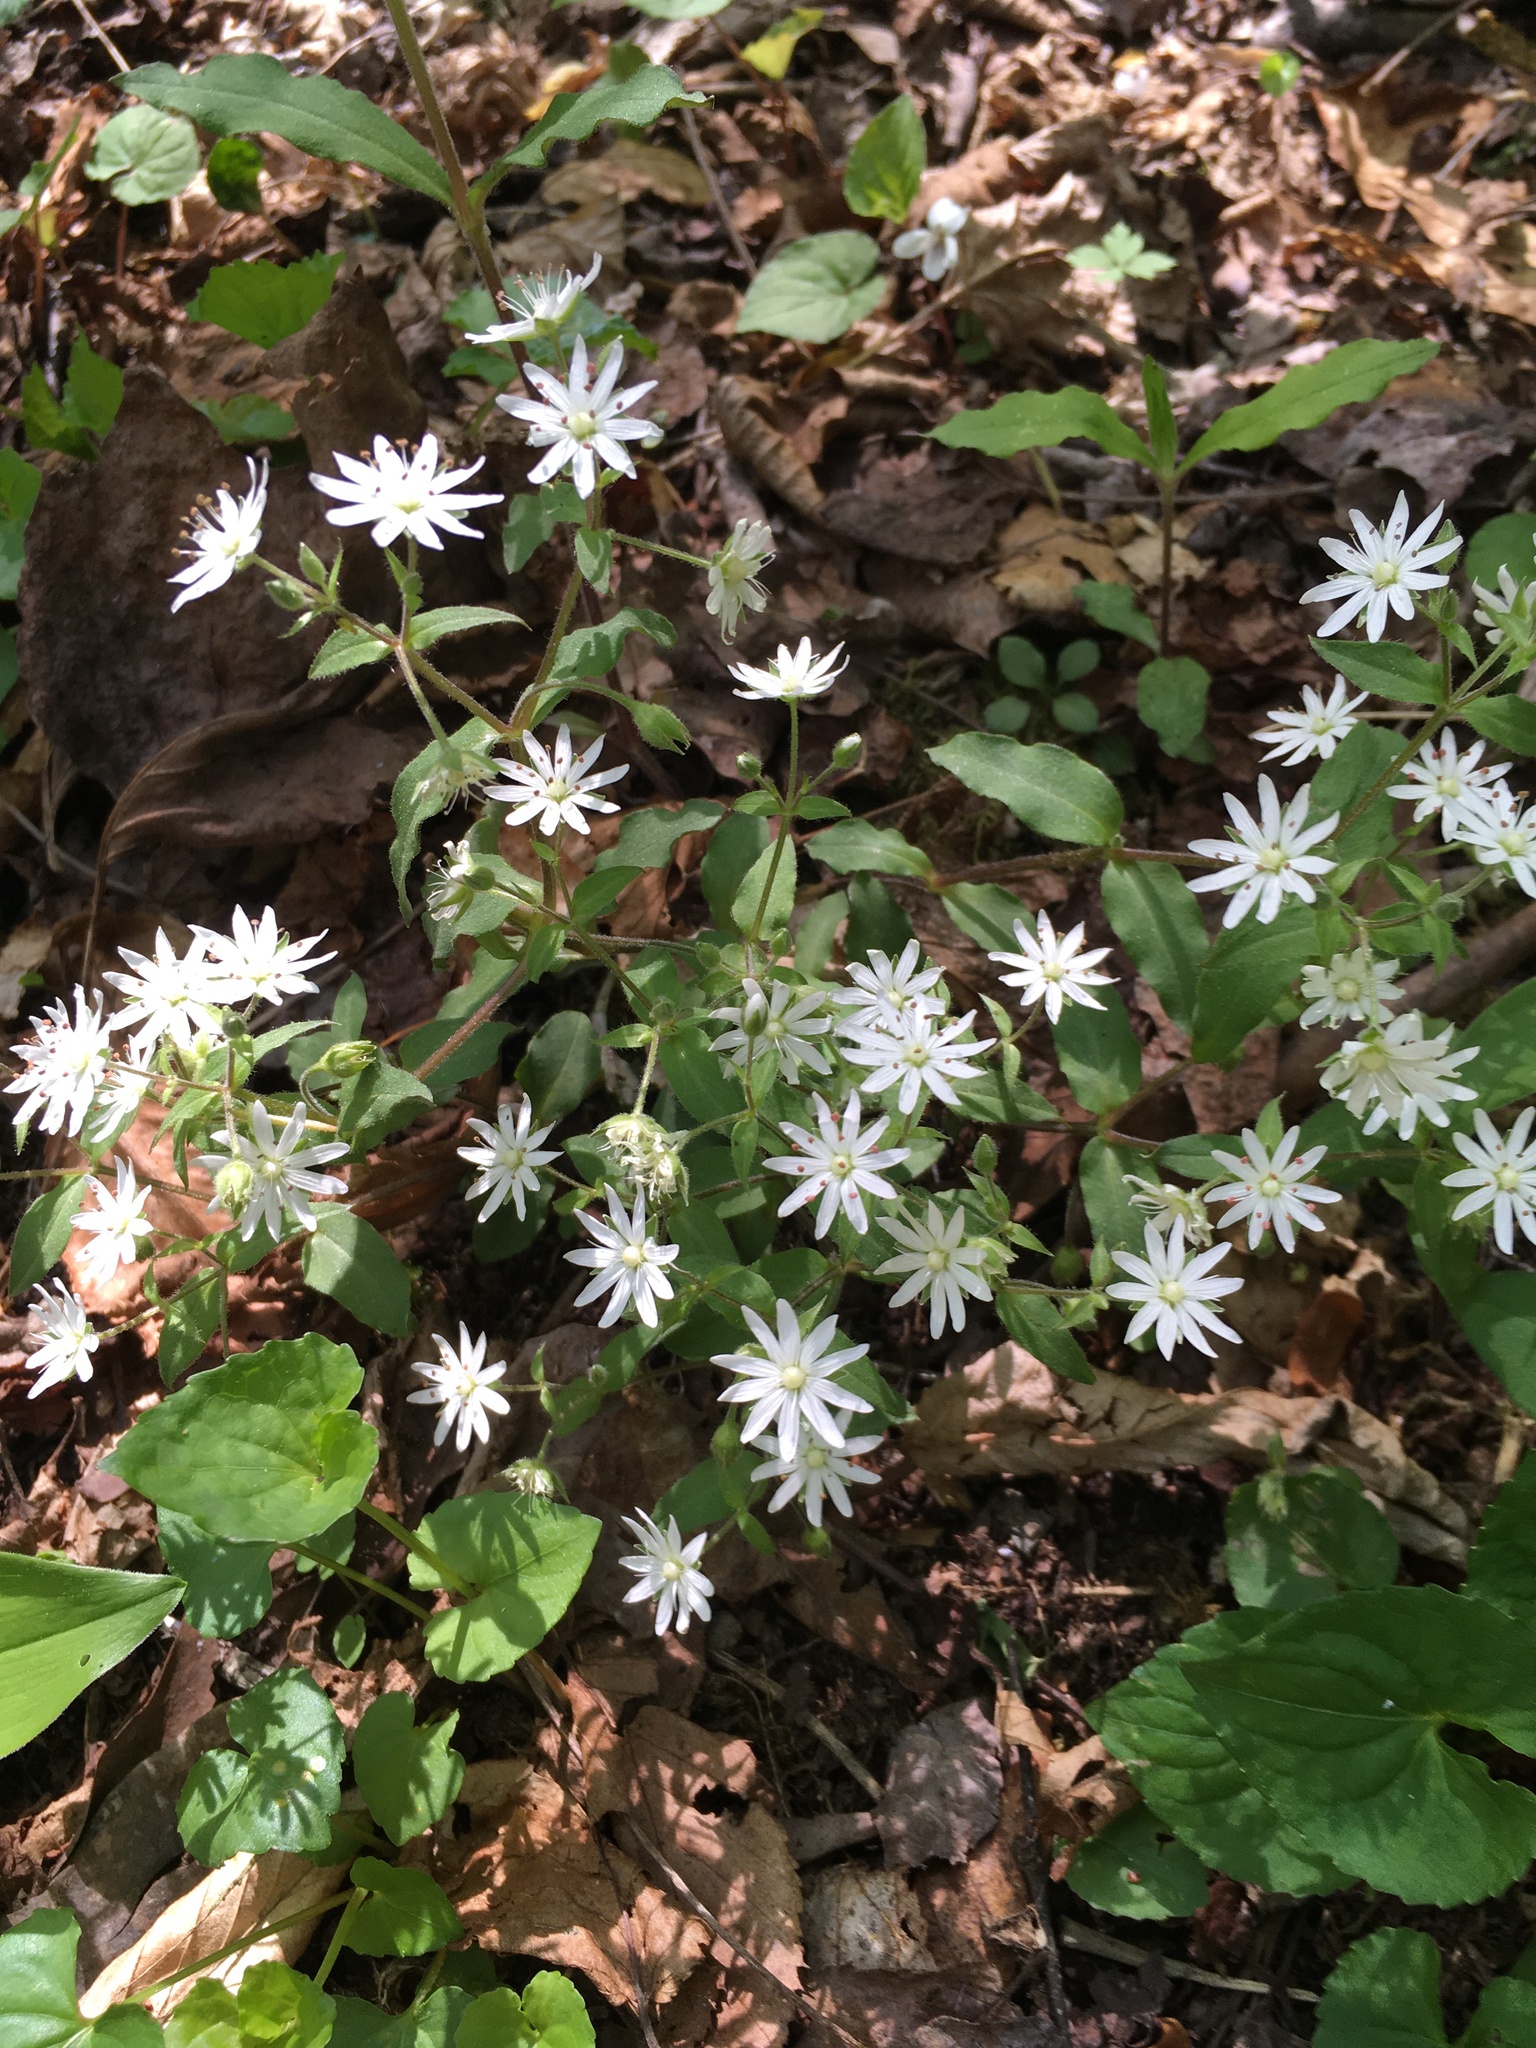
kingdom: Plantae
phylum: Tracheophyta
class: Magnoliopsida
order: Caryophyllales
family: Caryophyllaceae
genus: Stellaria
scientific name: Stellaria pubera
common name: Star chickweed
